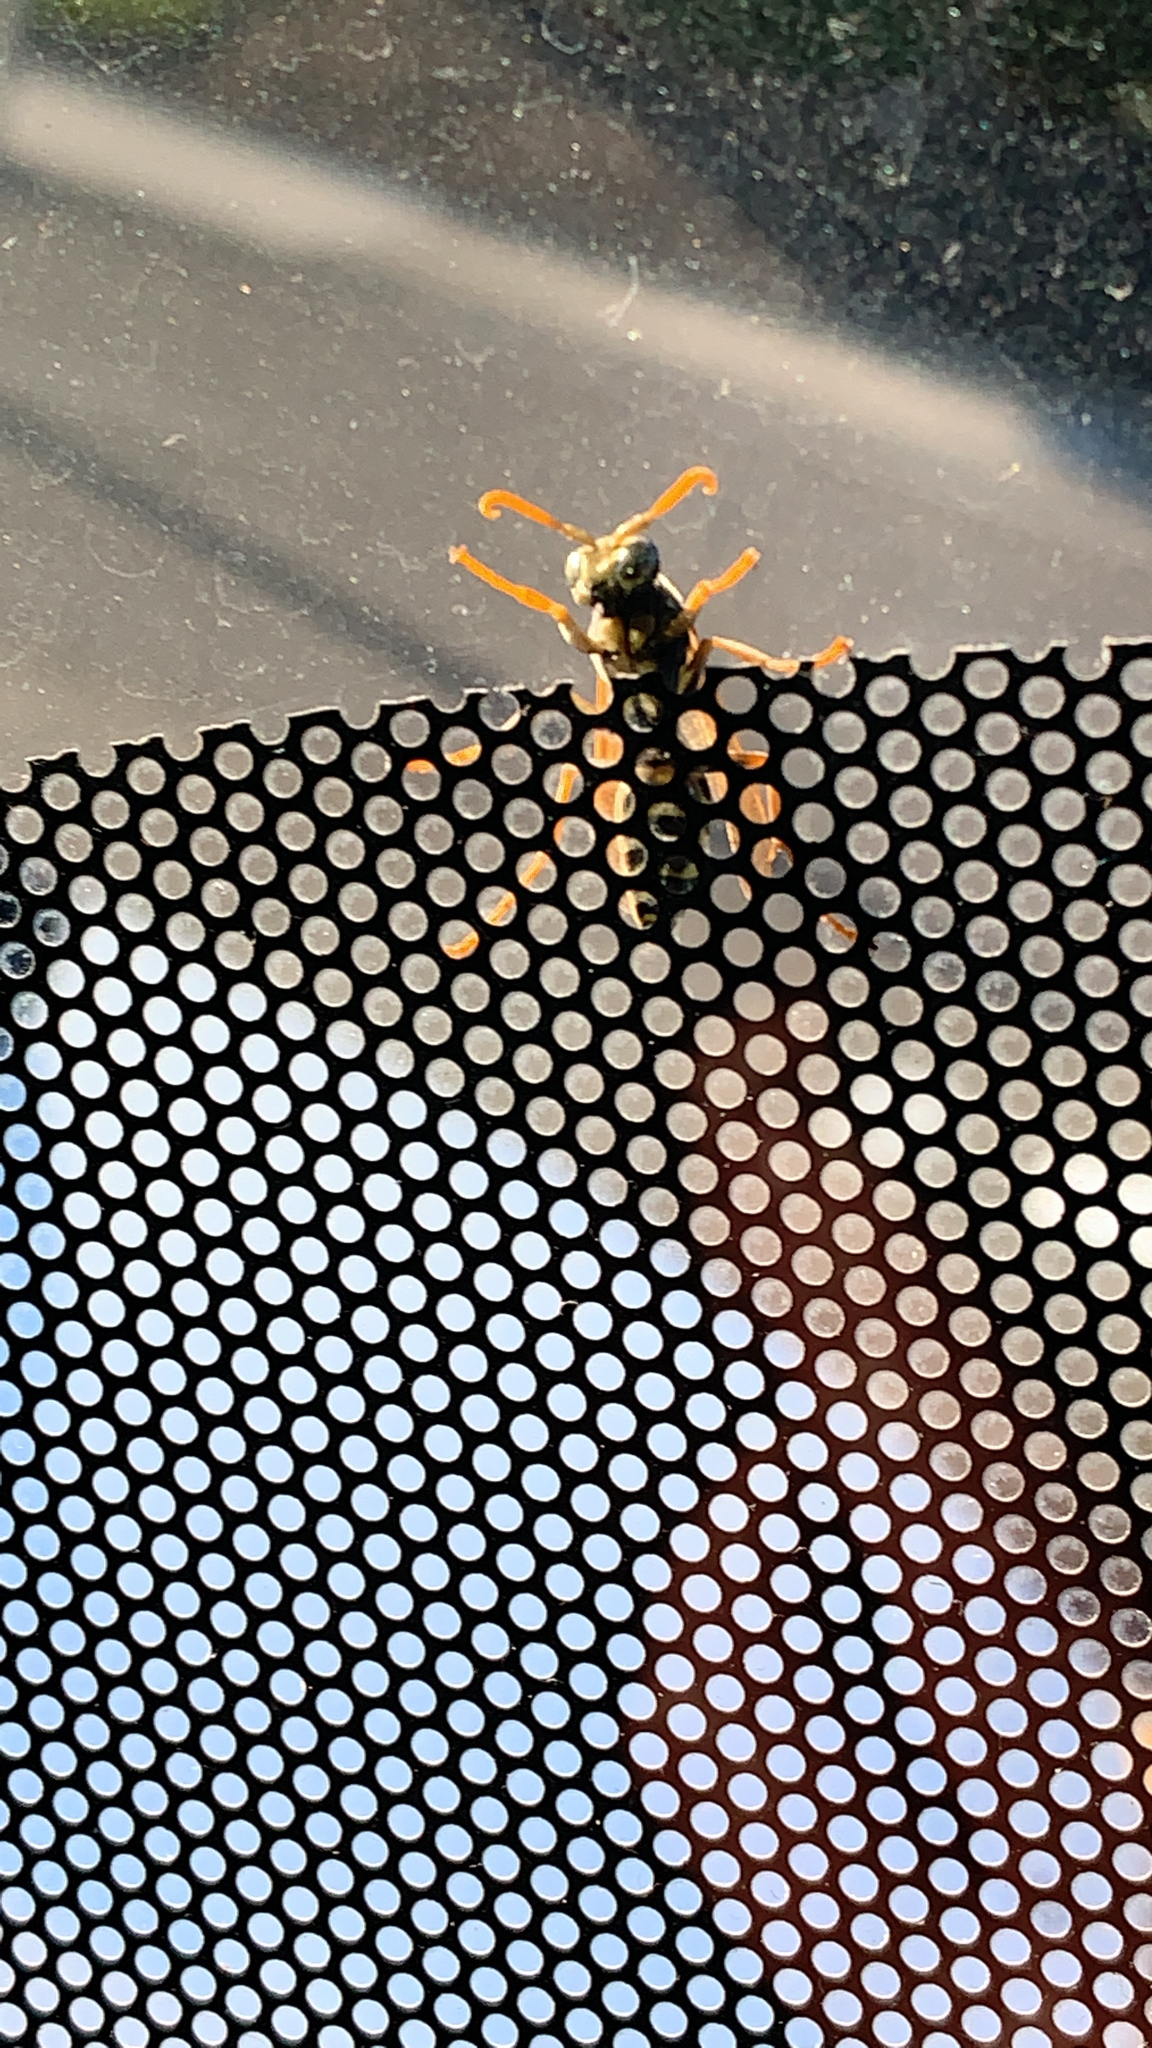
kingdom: Animalia
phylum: Arthropoda
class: Insecta
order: Hymenoptera
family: Eumenidae
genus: Polistes
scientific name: Polistes dominula
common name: Paper wasp
